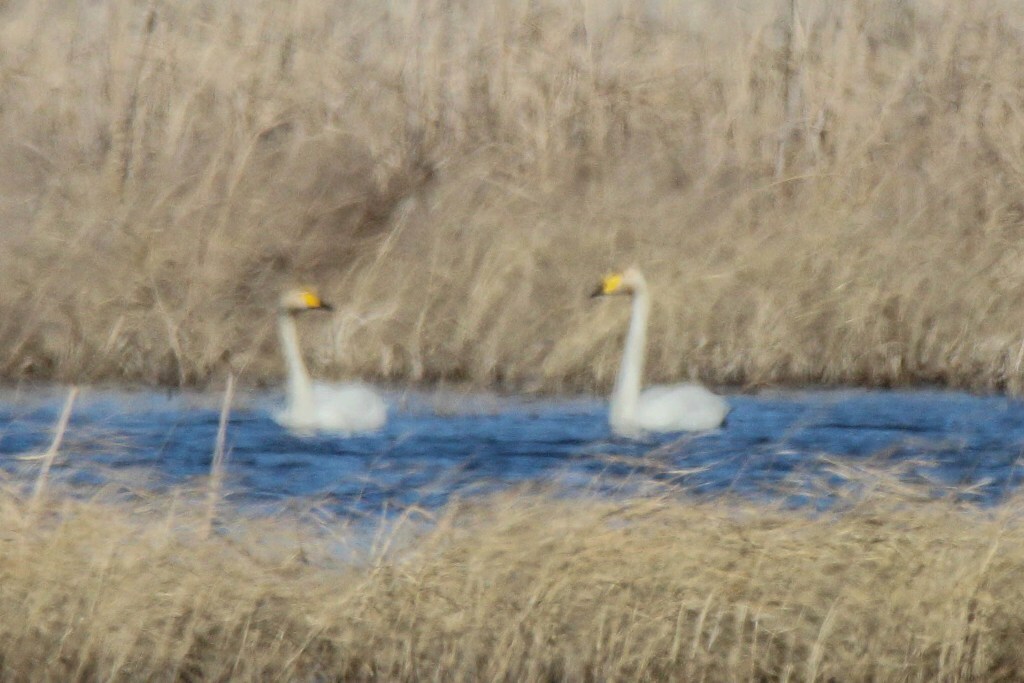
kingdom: Animalia
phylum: Chordata
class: Aves
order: Anseriformes
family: Anatidae
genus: Cygnus
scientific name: Cygnus cygnus
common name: Whooper swan
